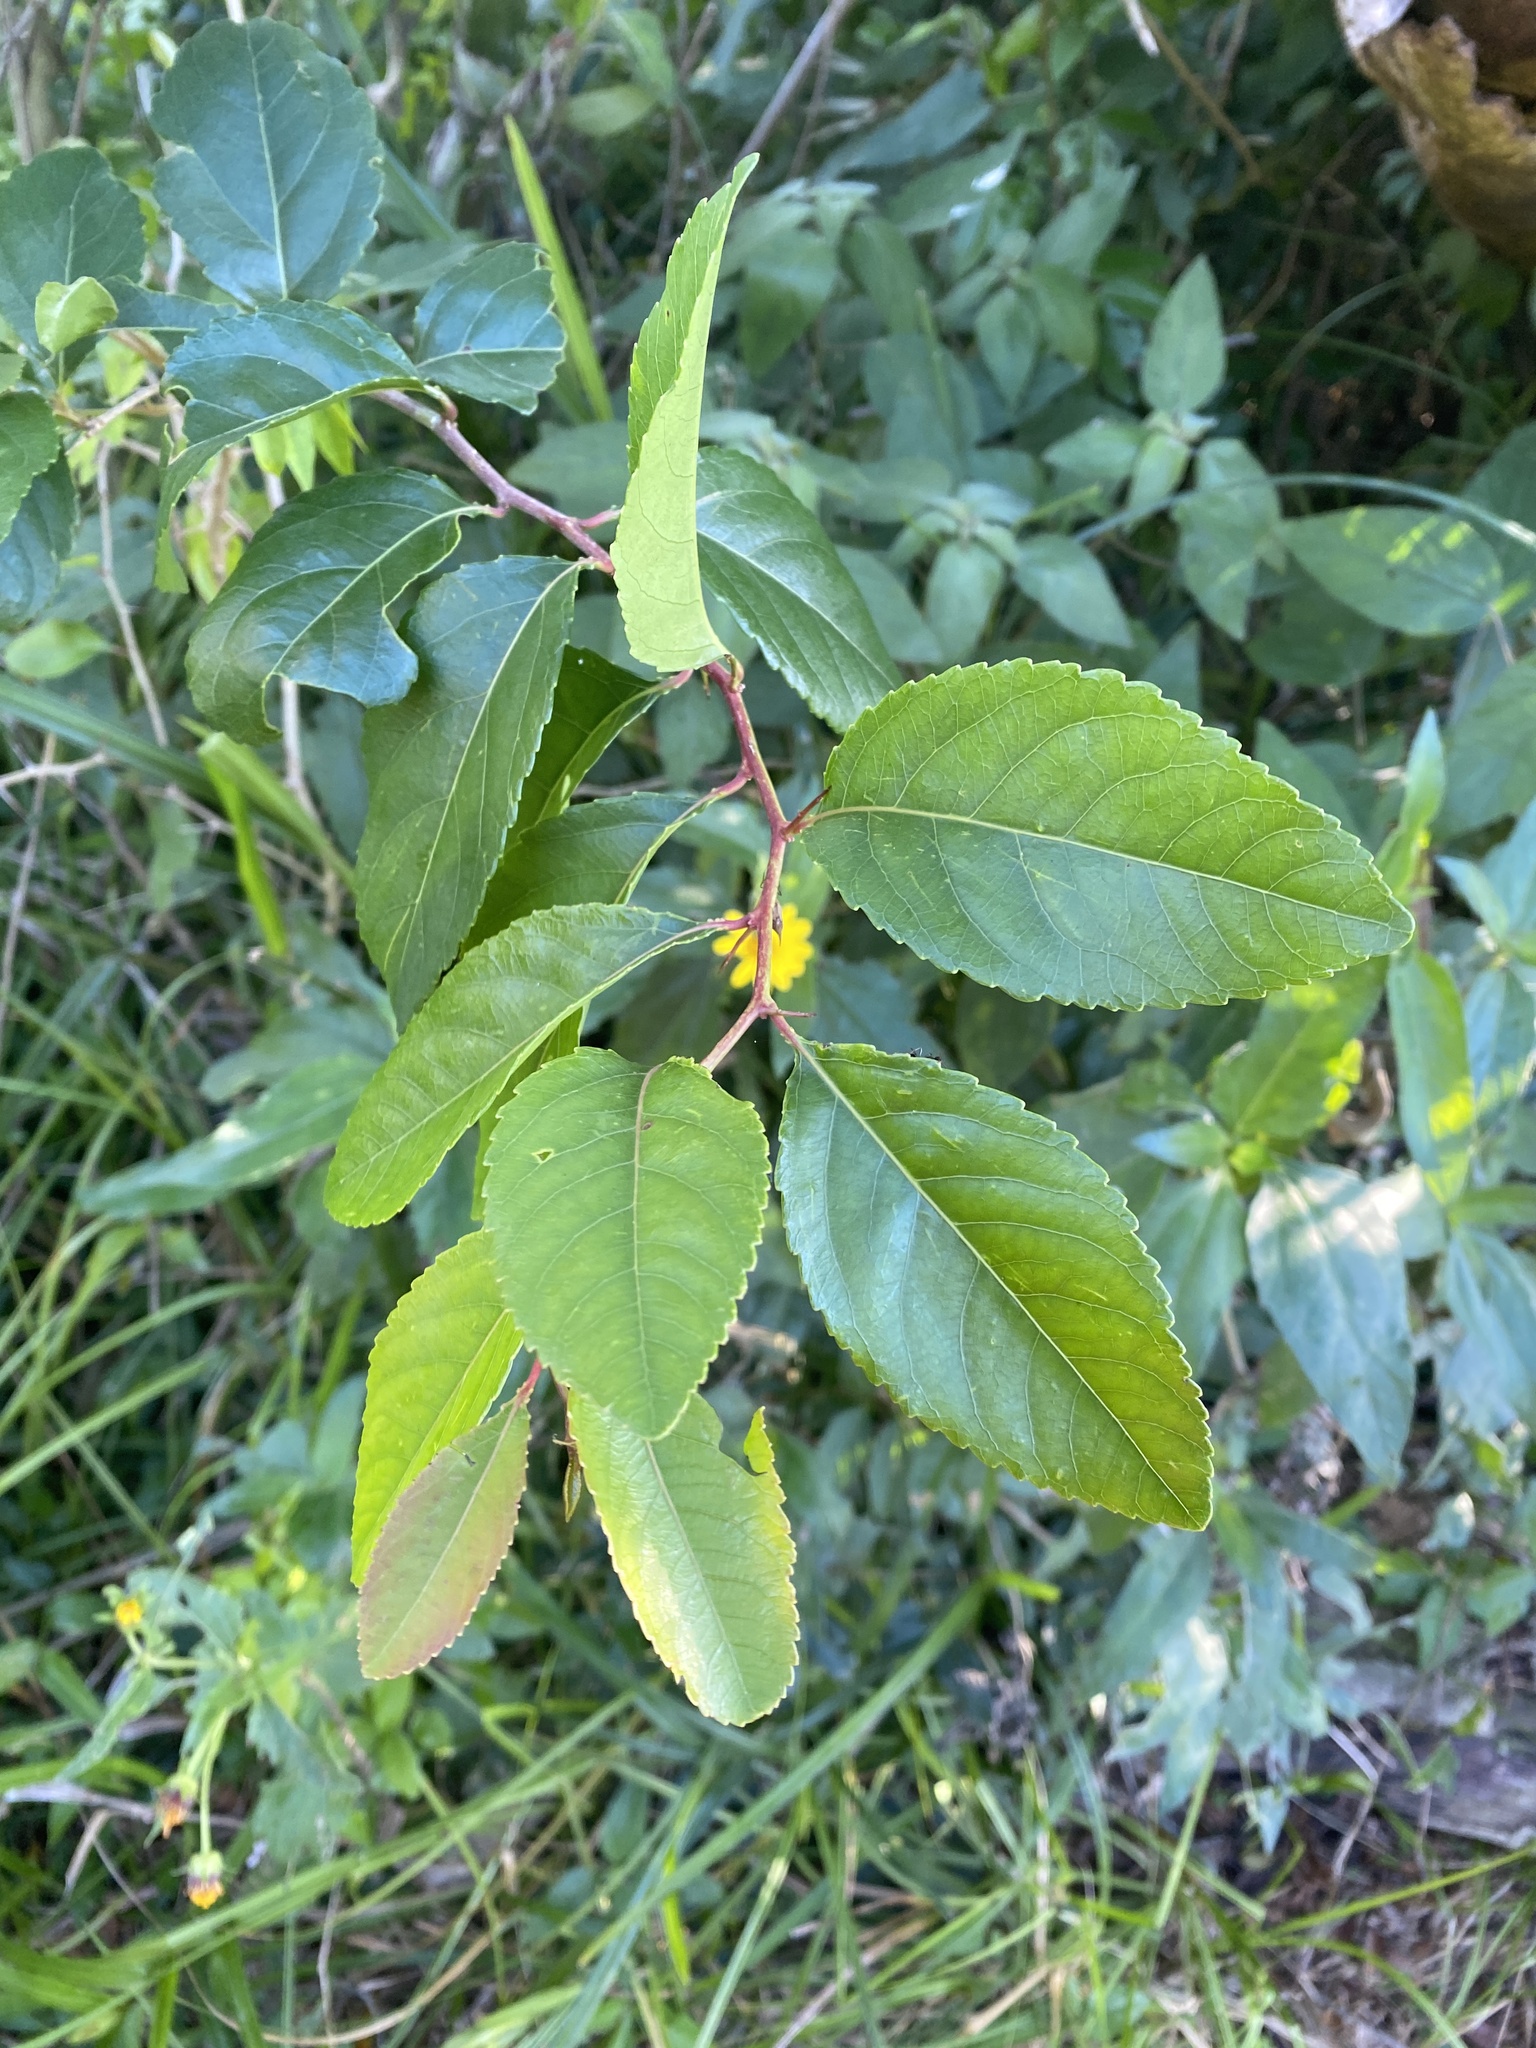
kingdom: Plantae
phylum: Tracheophyta
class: Magnoliopsida
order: Malpighiales
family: Salicaceae
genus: Xylosma
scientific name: Xylosma venosa
